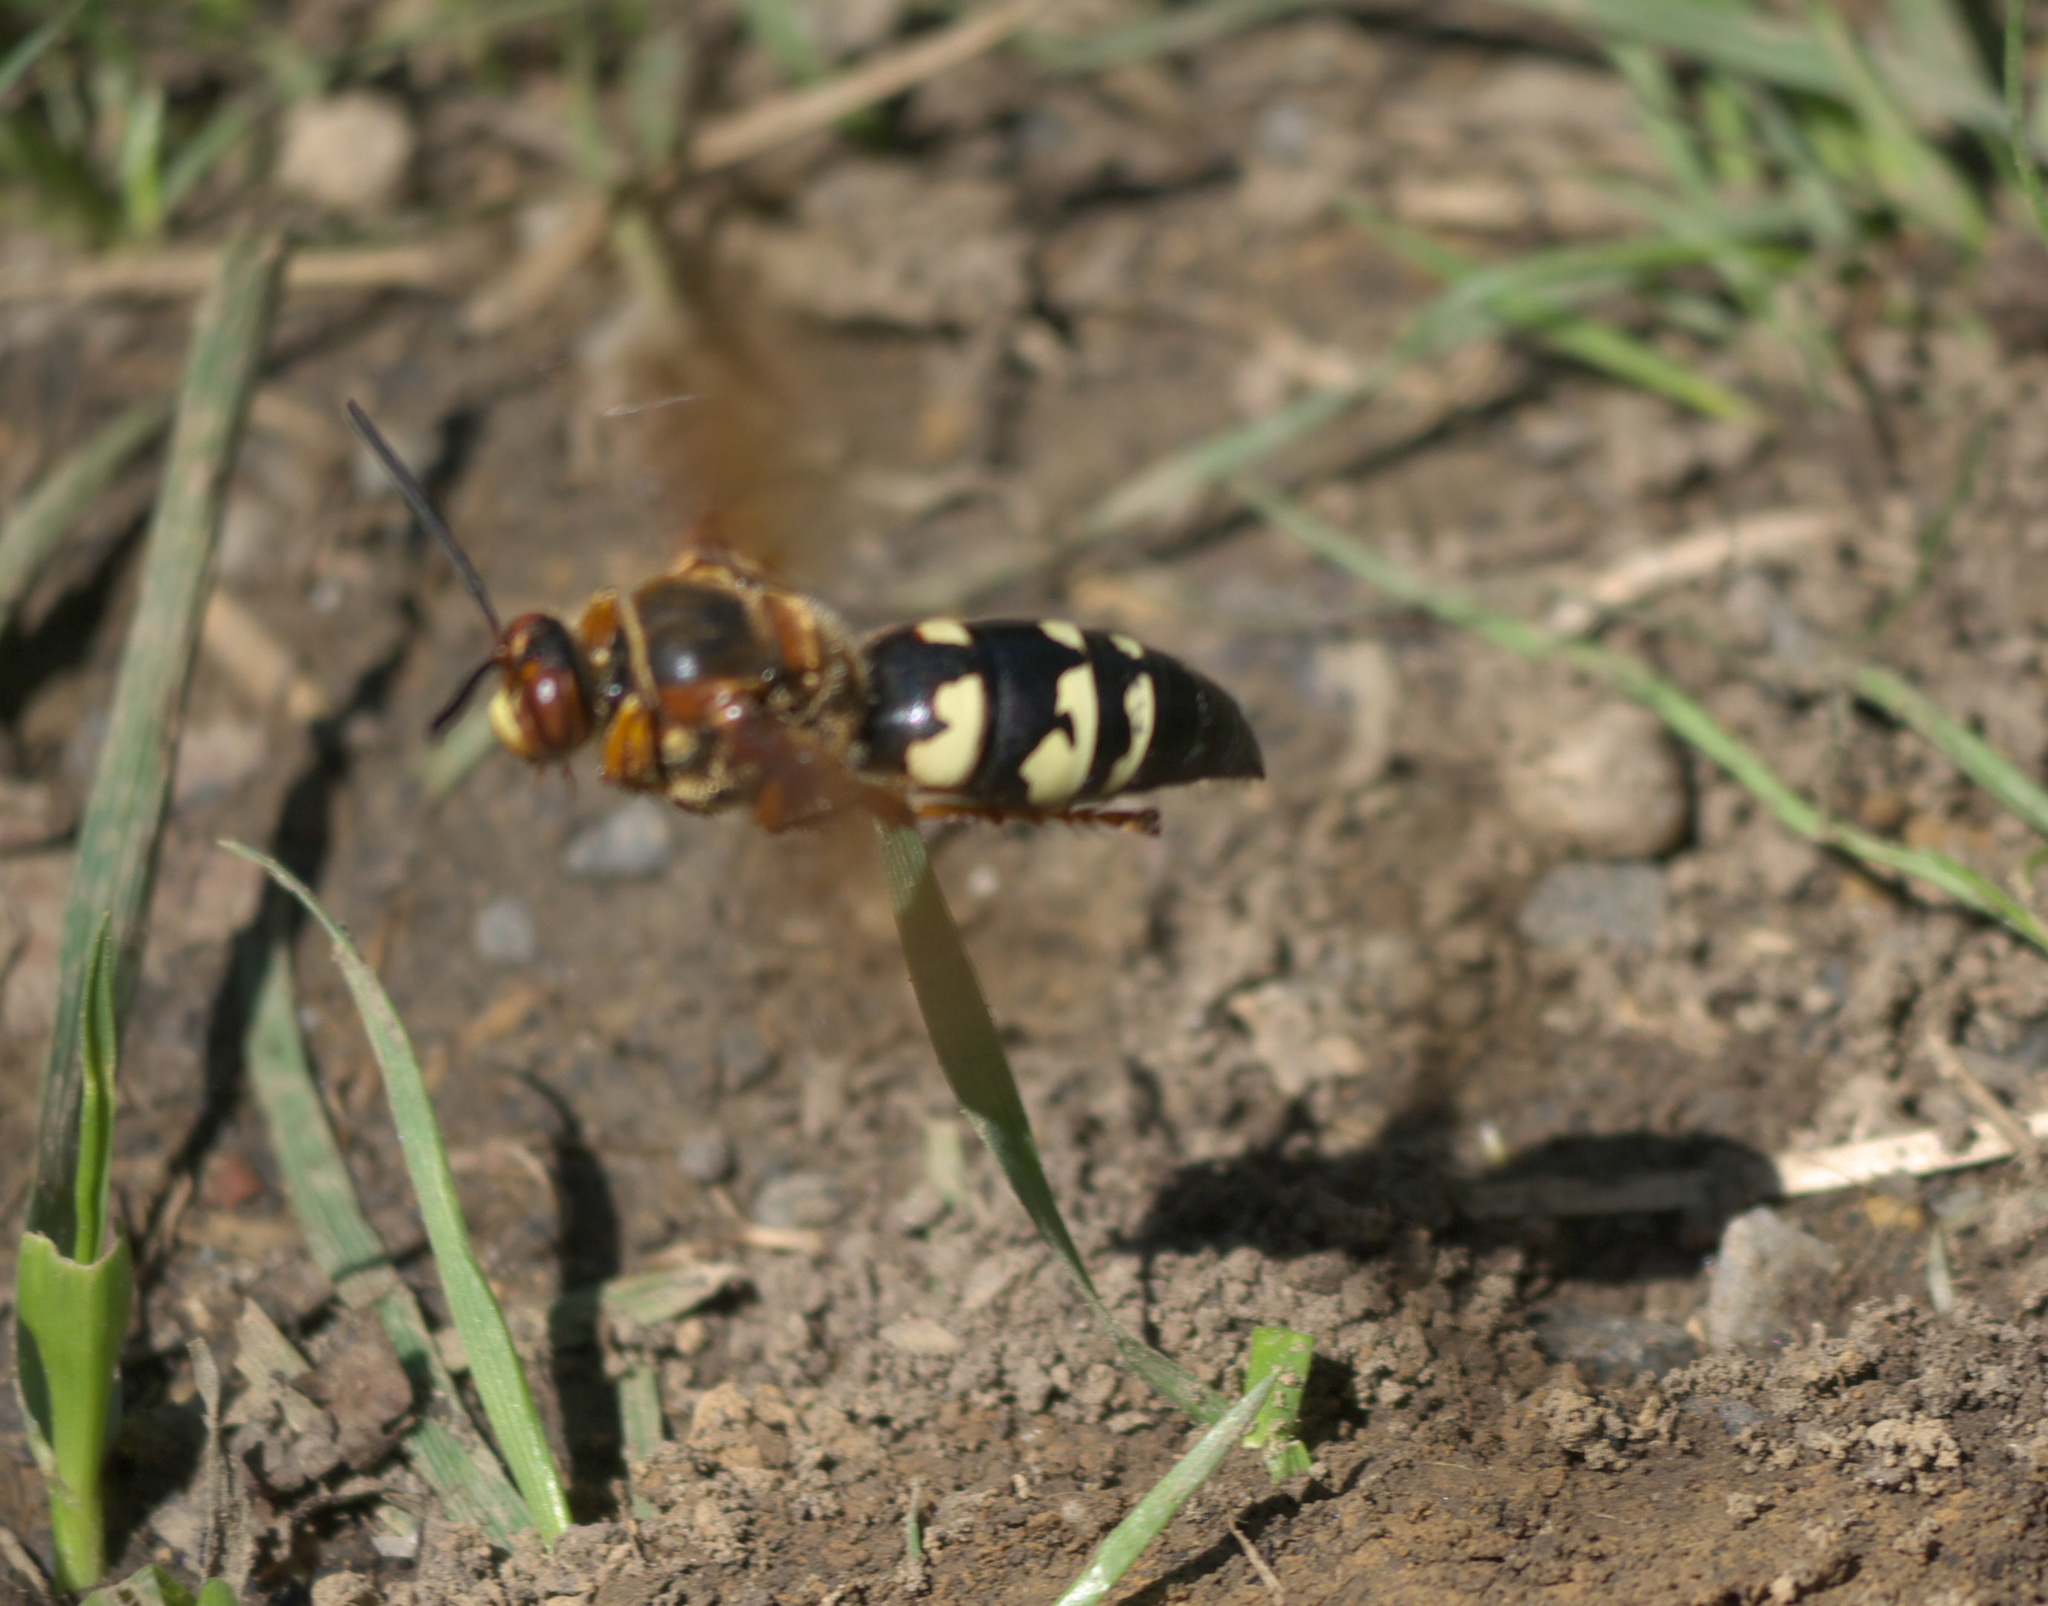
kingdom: Animalia
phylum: Arthropoda
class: Insecta
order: Hymenoptera
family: Crabronidae
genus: Sphecius
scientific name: Sphecius speciosus
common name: Cicada killer
